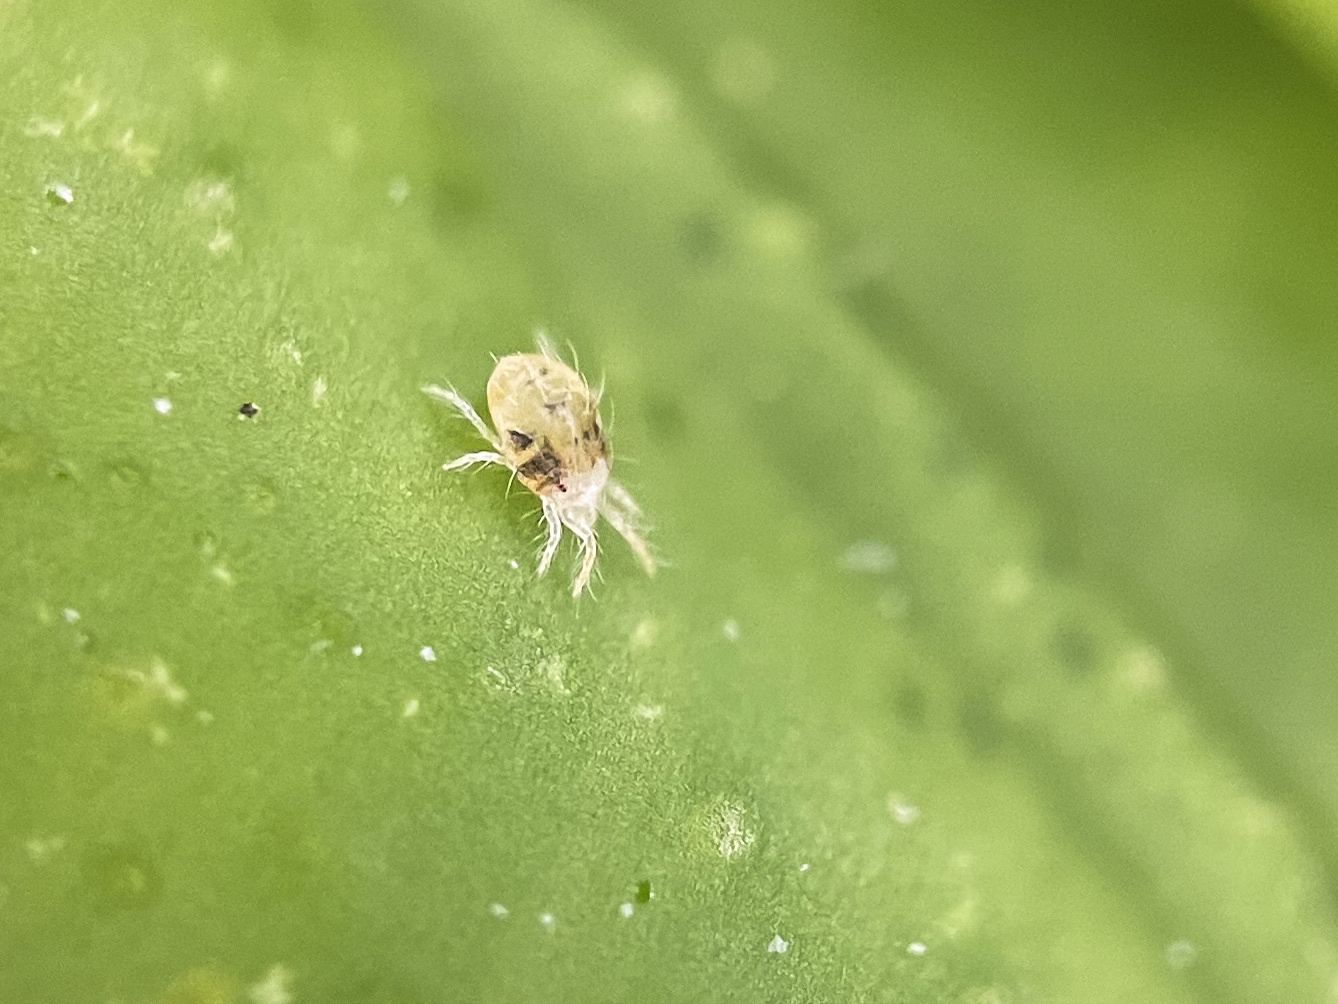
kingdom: Animalia
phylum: Arthropoda
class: Arachnida
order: Trombidiformes
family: Tetranychidae
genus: Tetranychus
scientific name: Tetranychus urticae
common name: Carmine spider mite
